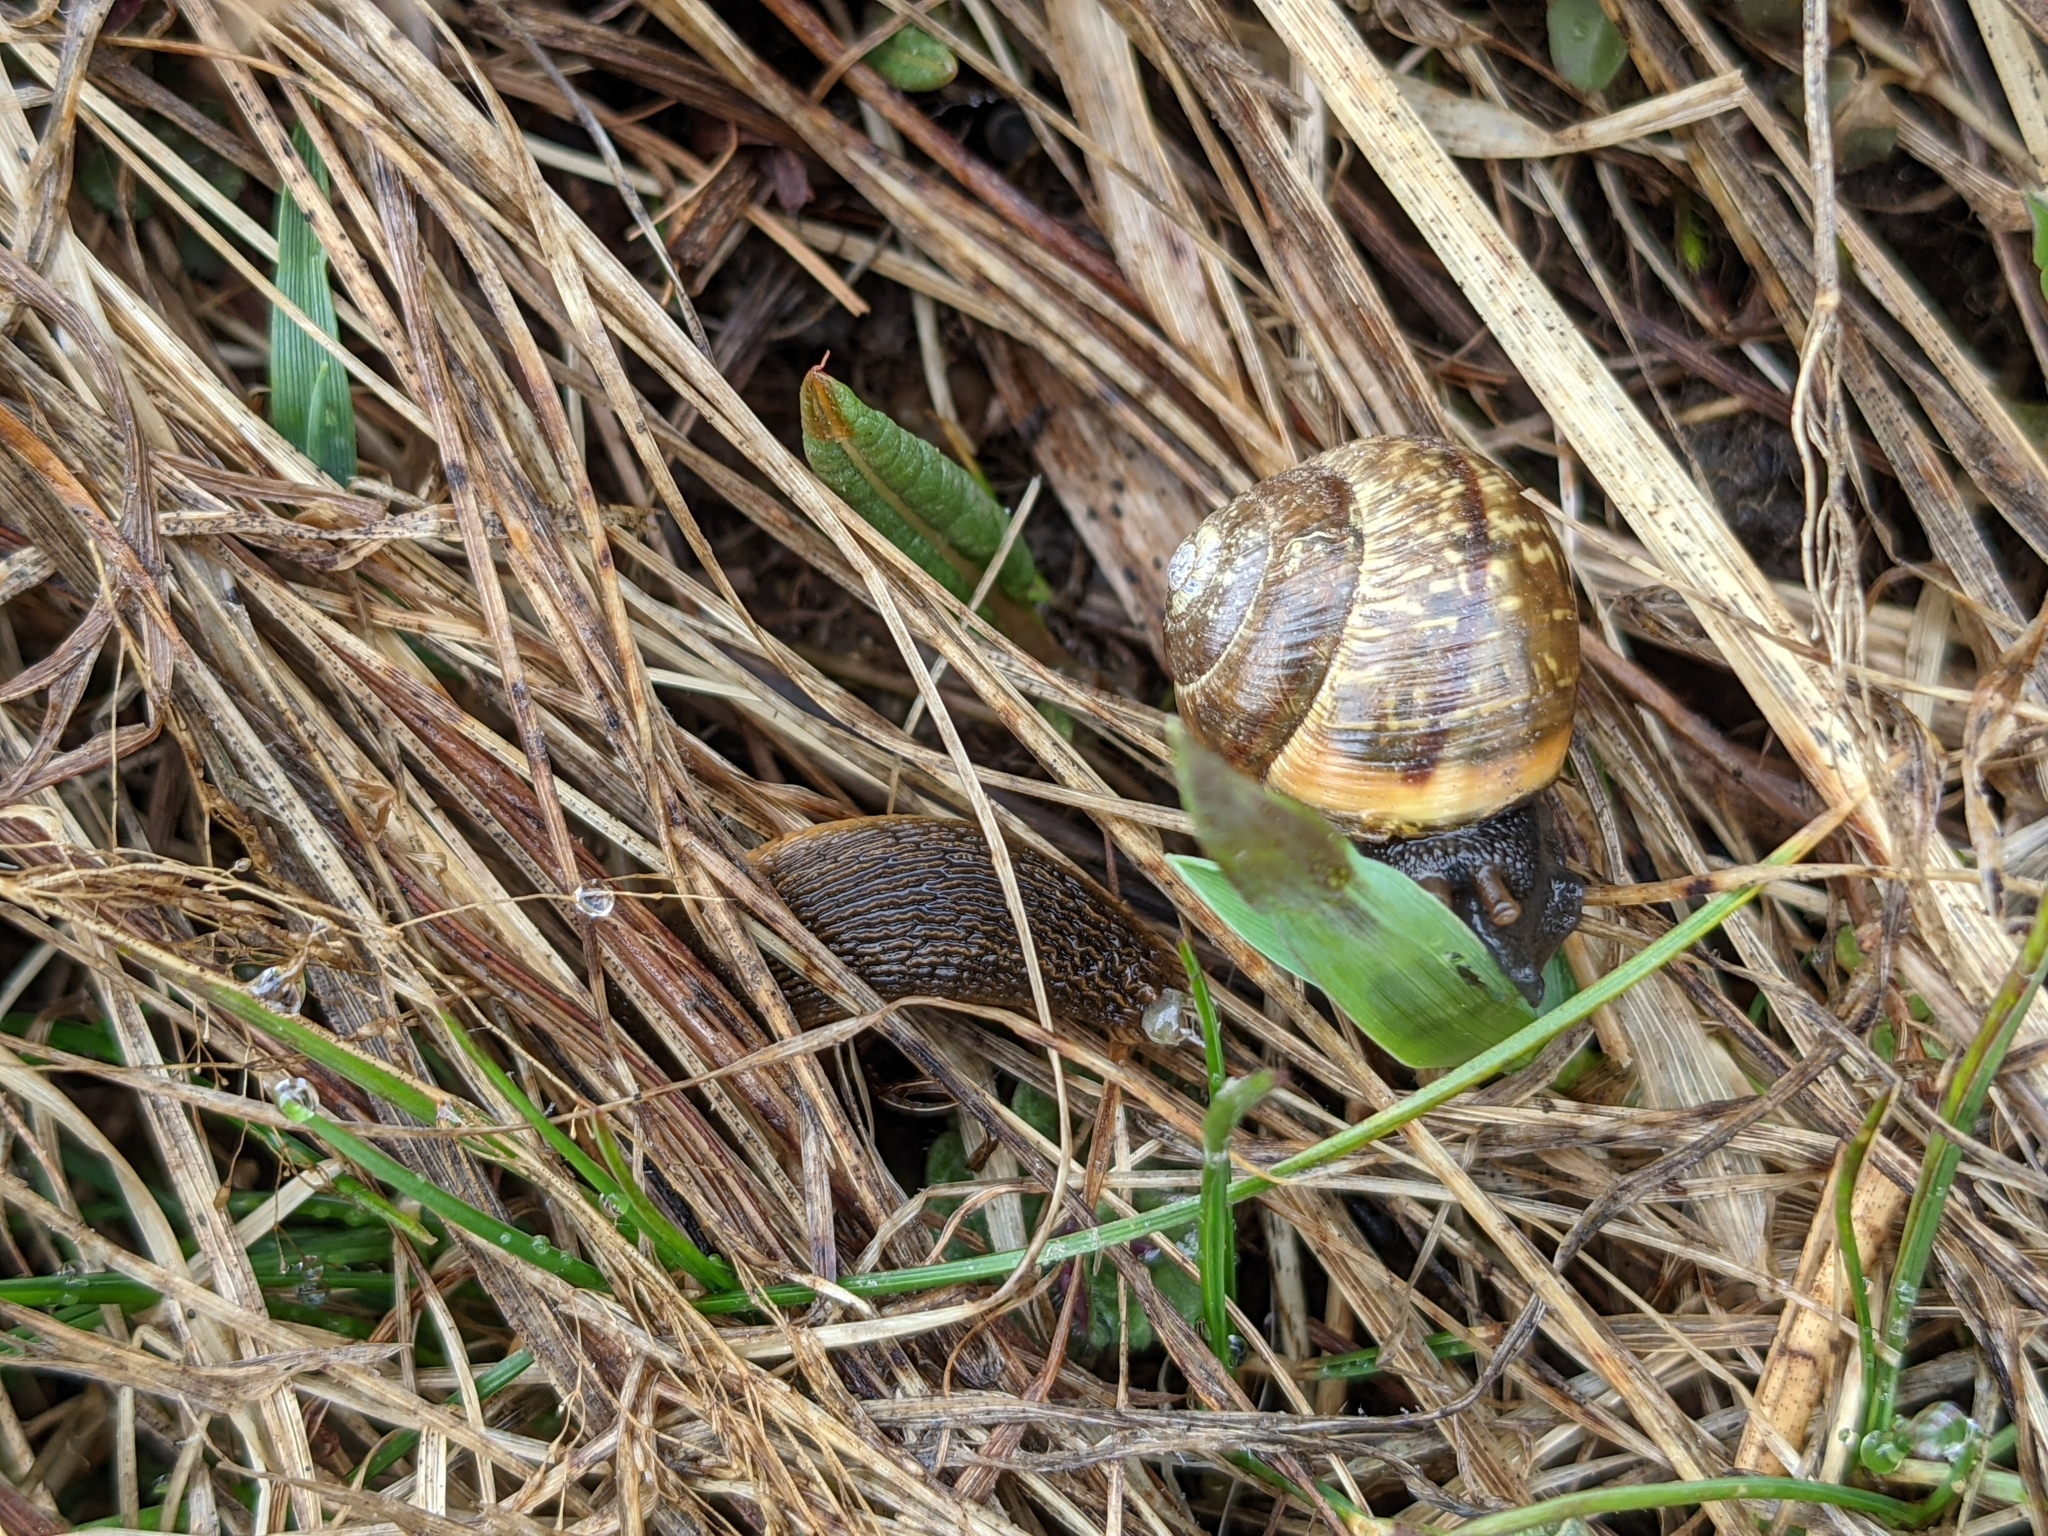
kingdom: Animalia
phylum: Mollusca
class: Gastropoda
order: Stylommatophora
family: Arionidae
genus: Arion
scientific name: Arion
